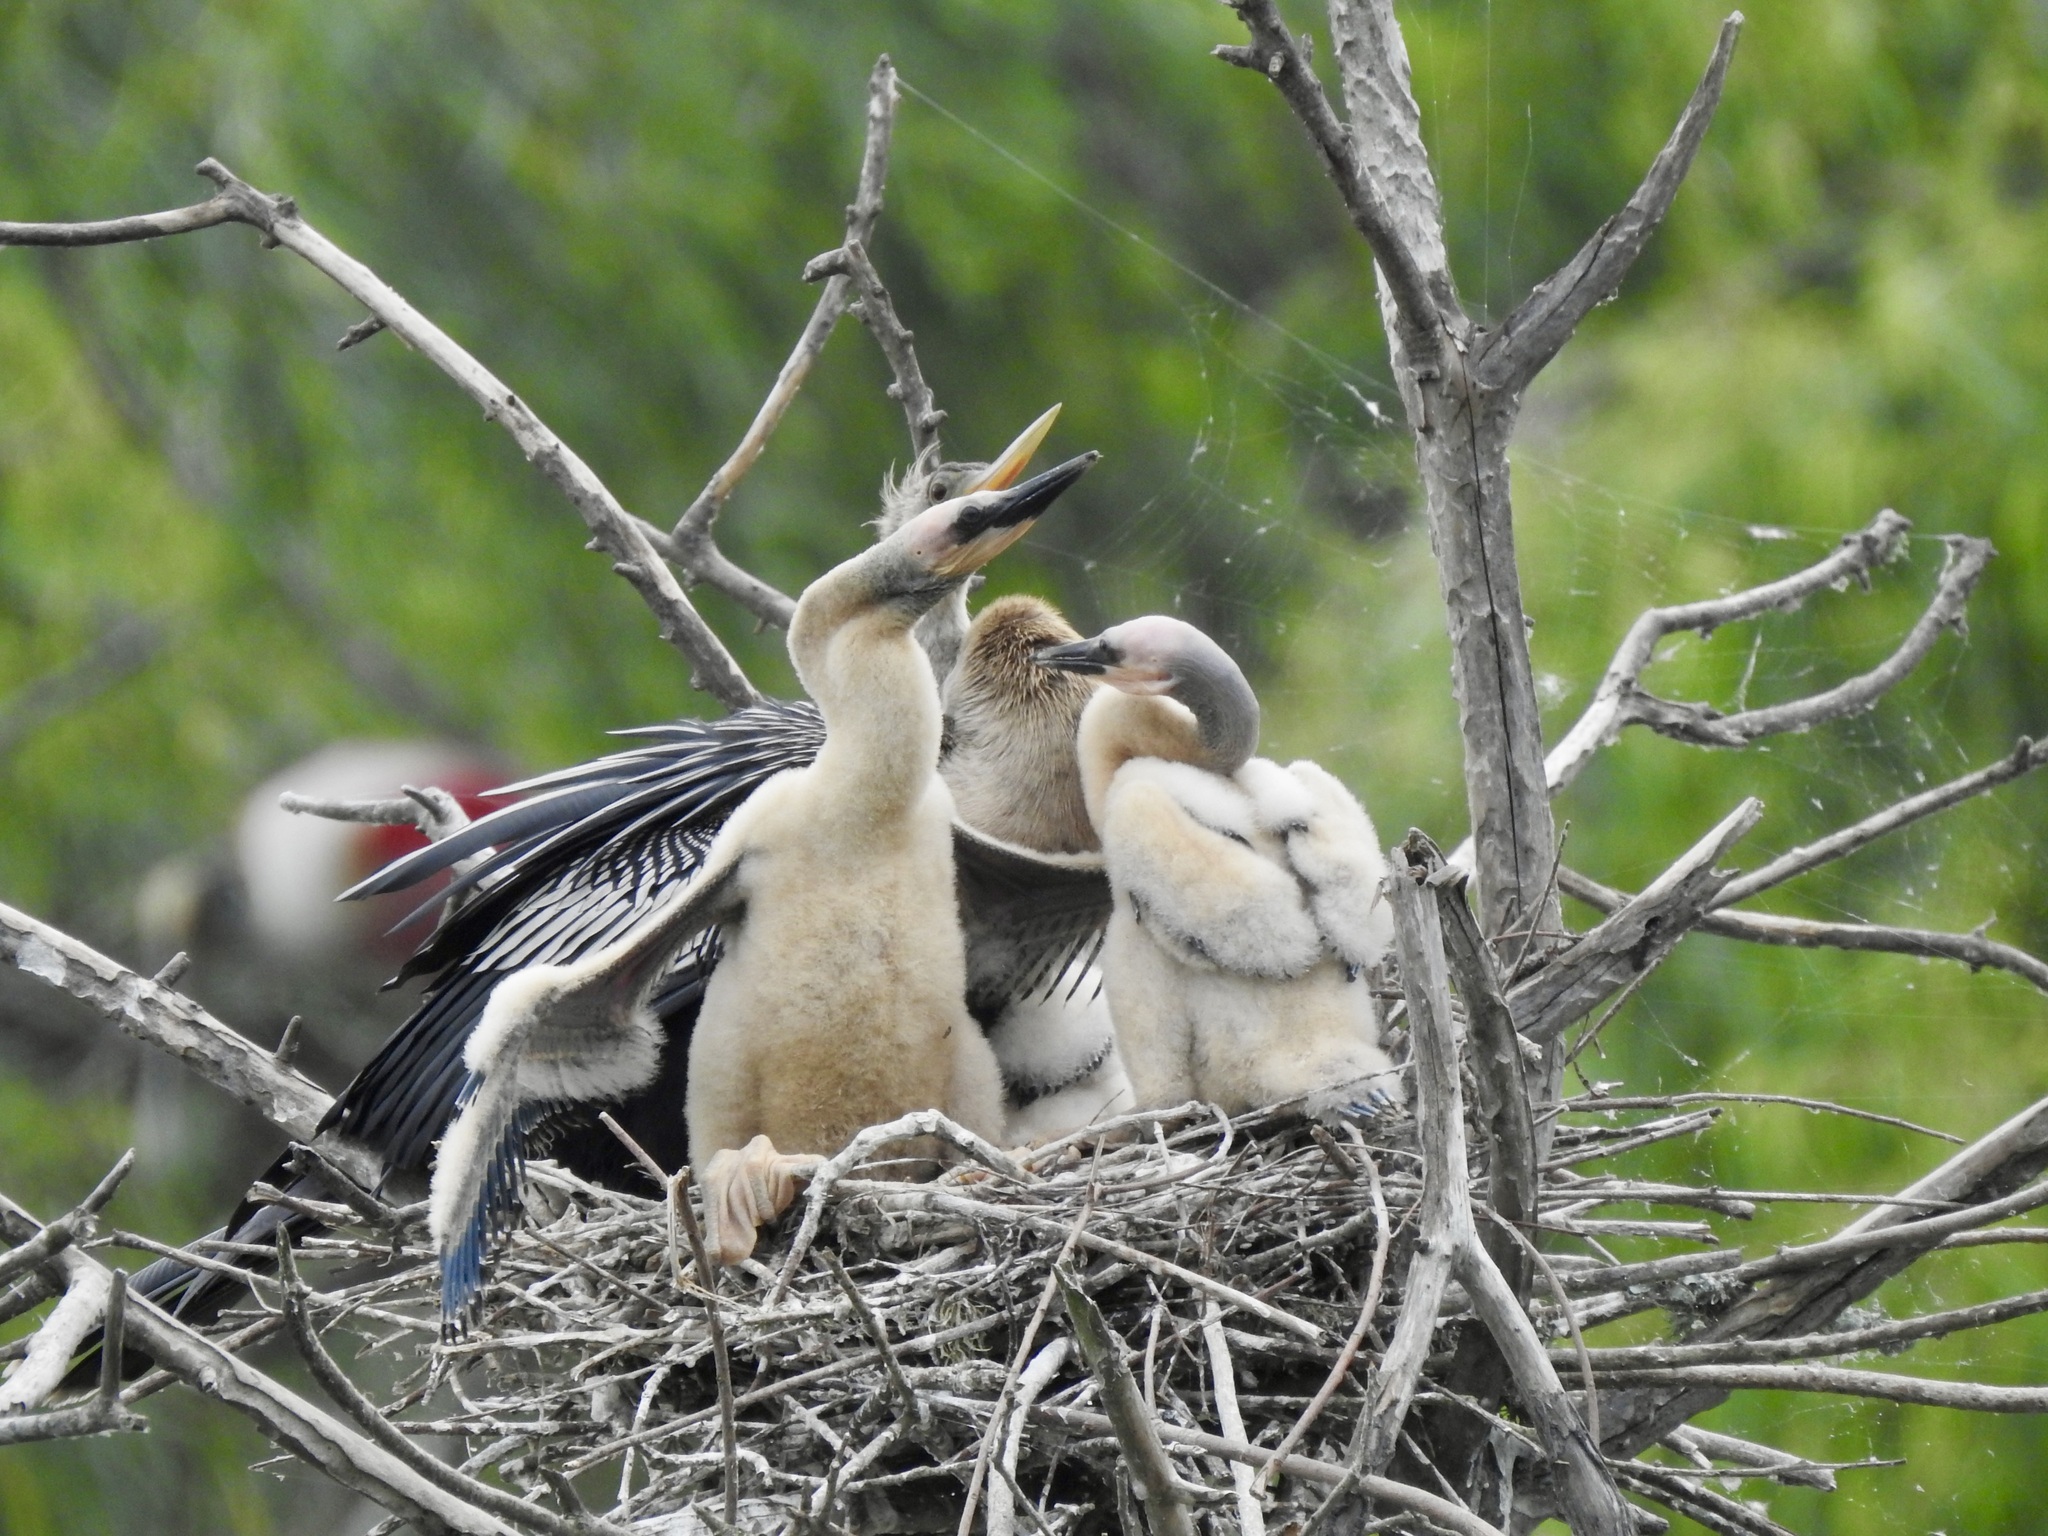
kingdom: Animalia
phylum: Chordata
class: Aves
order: Suliformes
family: Anhingidae
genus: Anhinga
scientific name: Anhinga anhinga
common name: Anhinga
